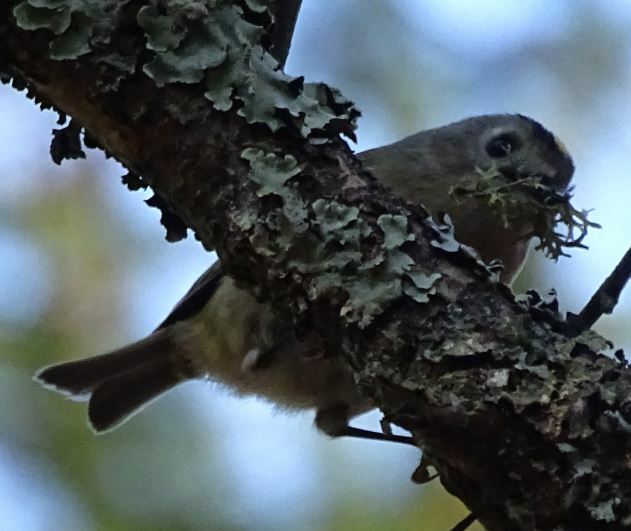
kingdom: Animalia
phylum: Chordata
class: Aves
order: Passeriformes
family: Regulidae
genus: Regulus
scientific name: Regulus regulus
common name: Goldcrest
